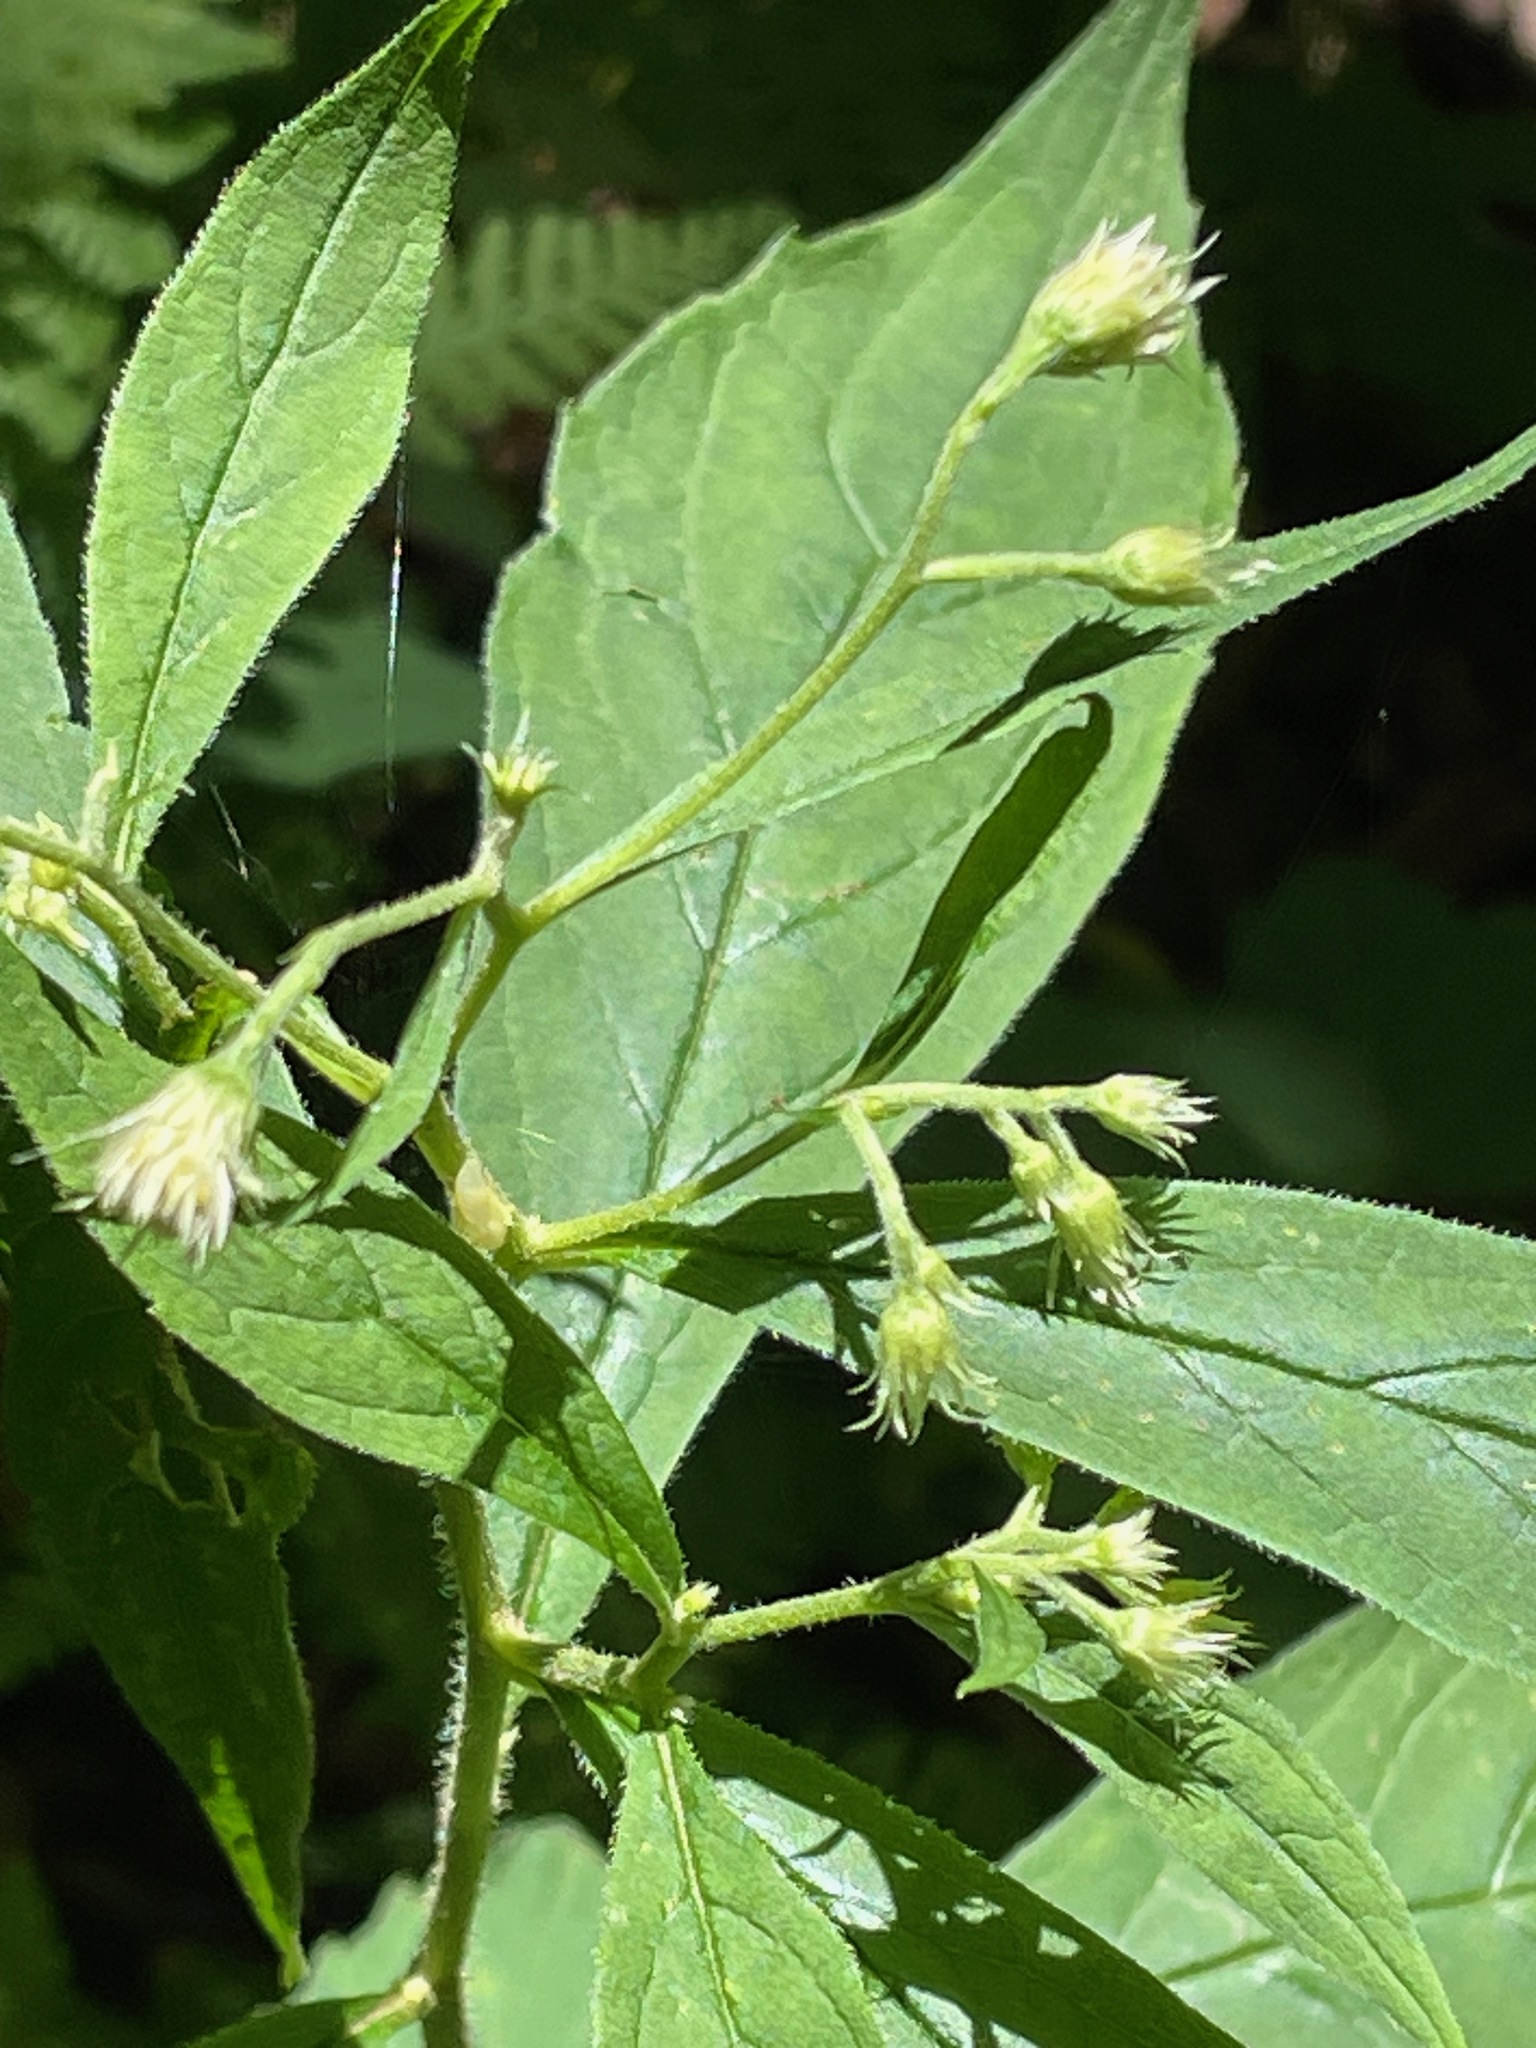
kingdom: Plantae
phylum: Tracheophyta
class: Magnoliopsida
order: Asterales
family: Asteraceae
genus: Oclemena
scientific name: Oclemena acuminata
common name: Mountain aster
